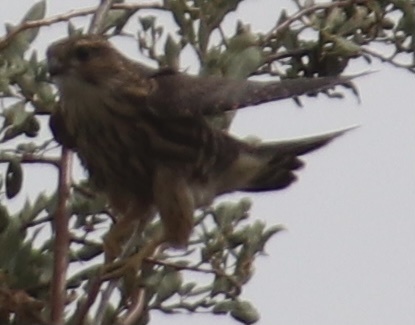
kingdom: Animalia
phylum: Chordata
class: Aves
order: Falconiformes
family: Falconidae
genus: Falco
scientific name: Falco columbarius
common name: Merlin
